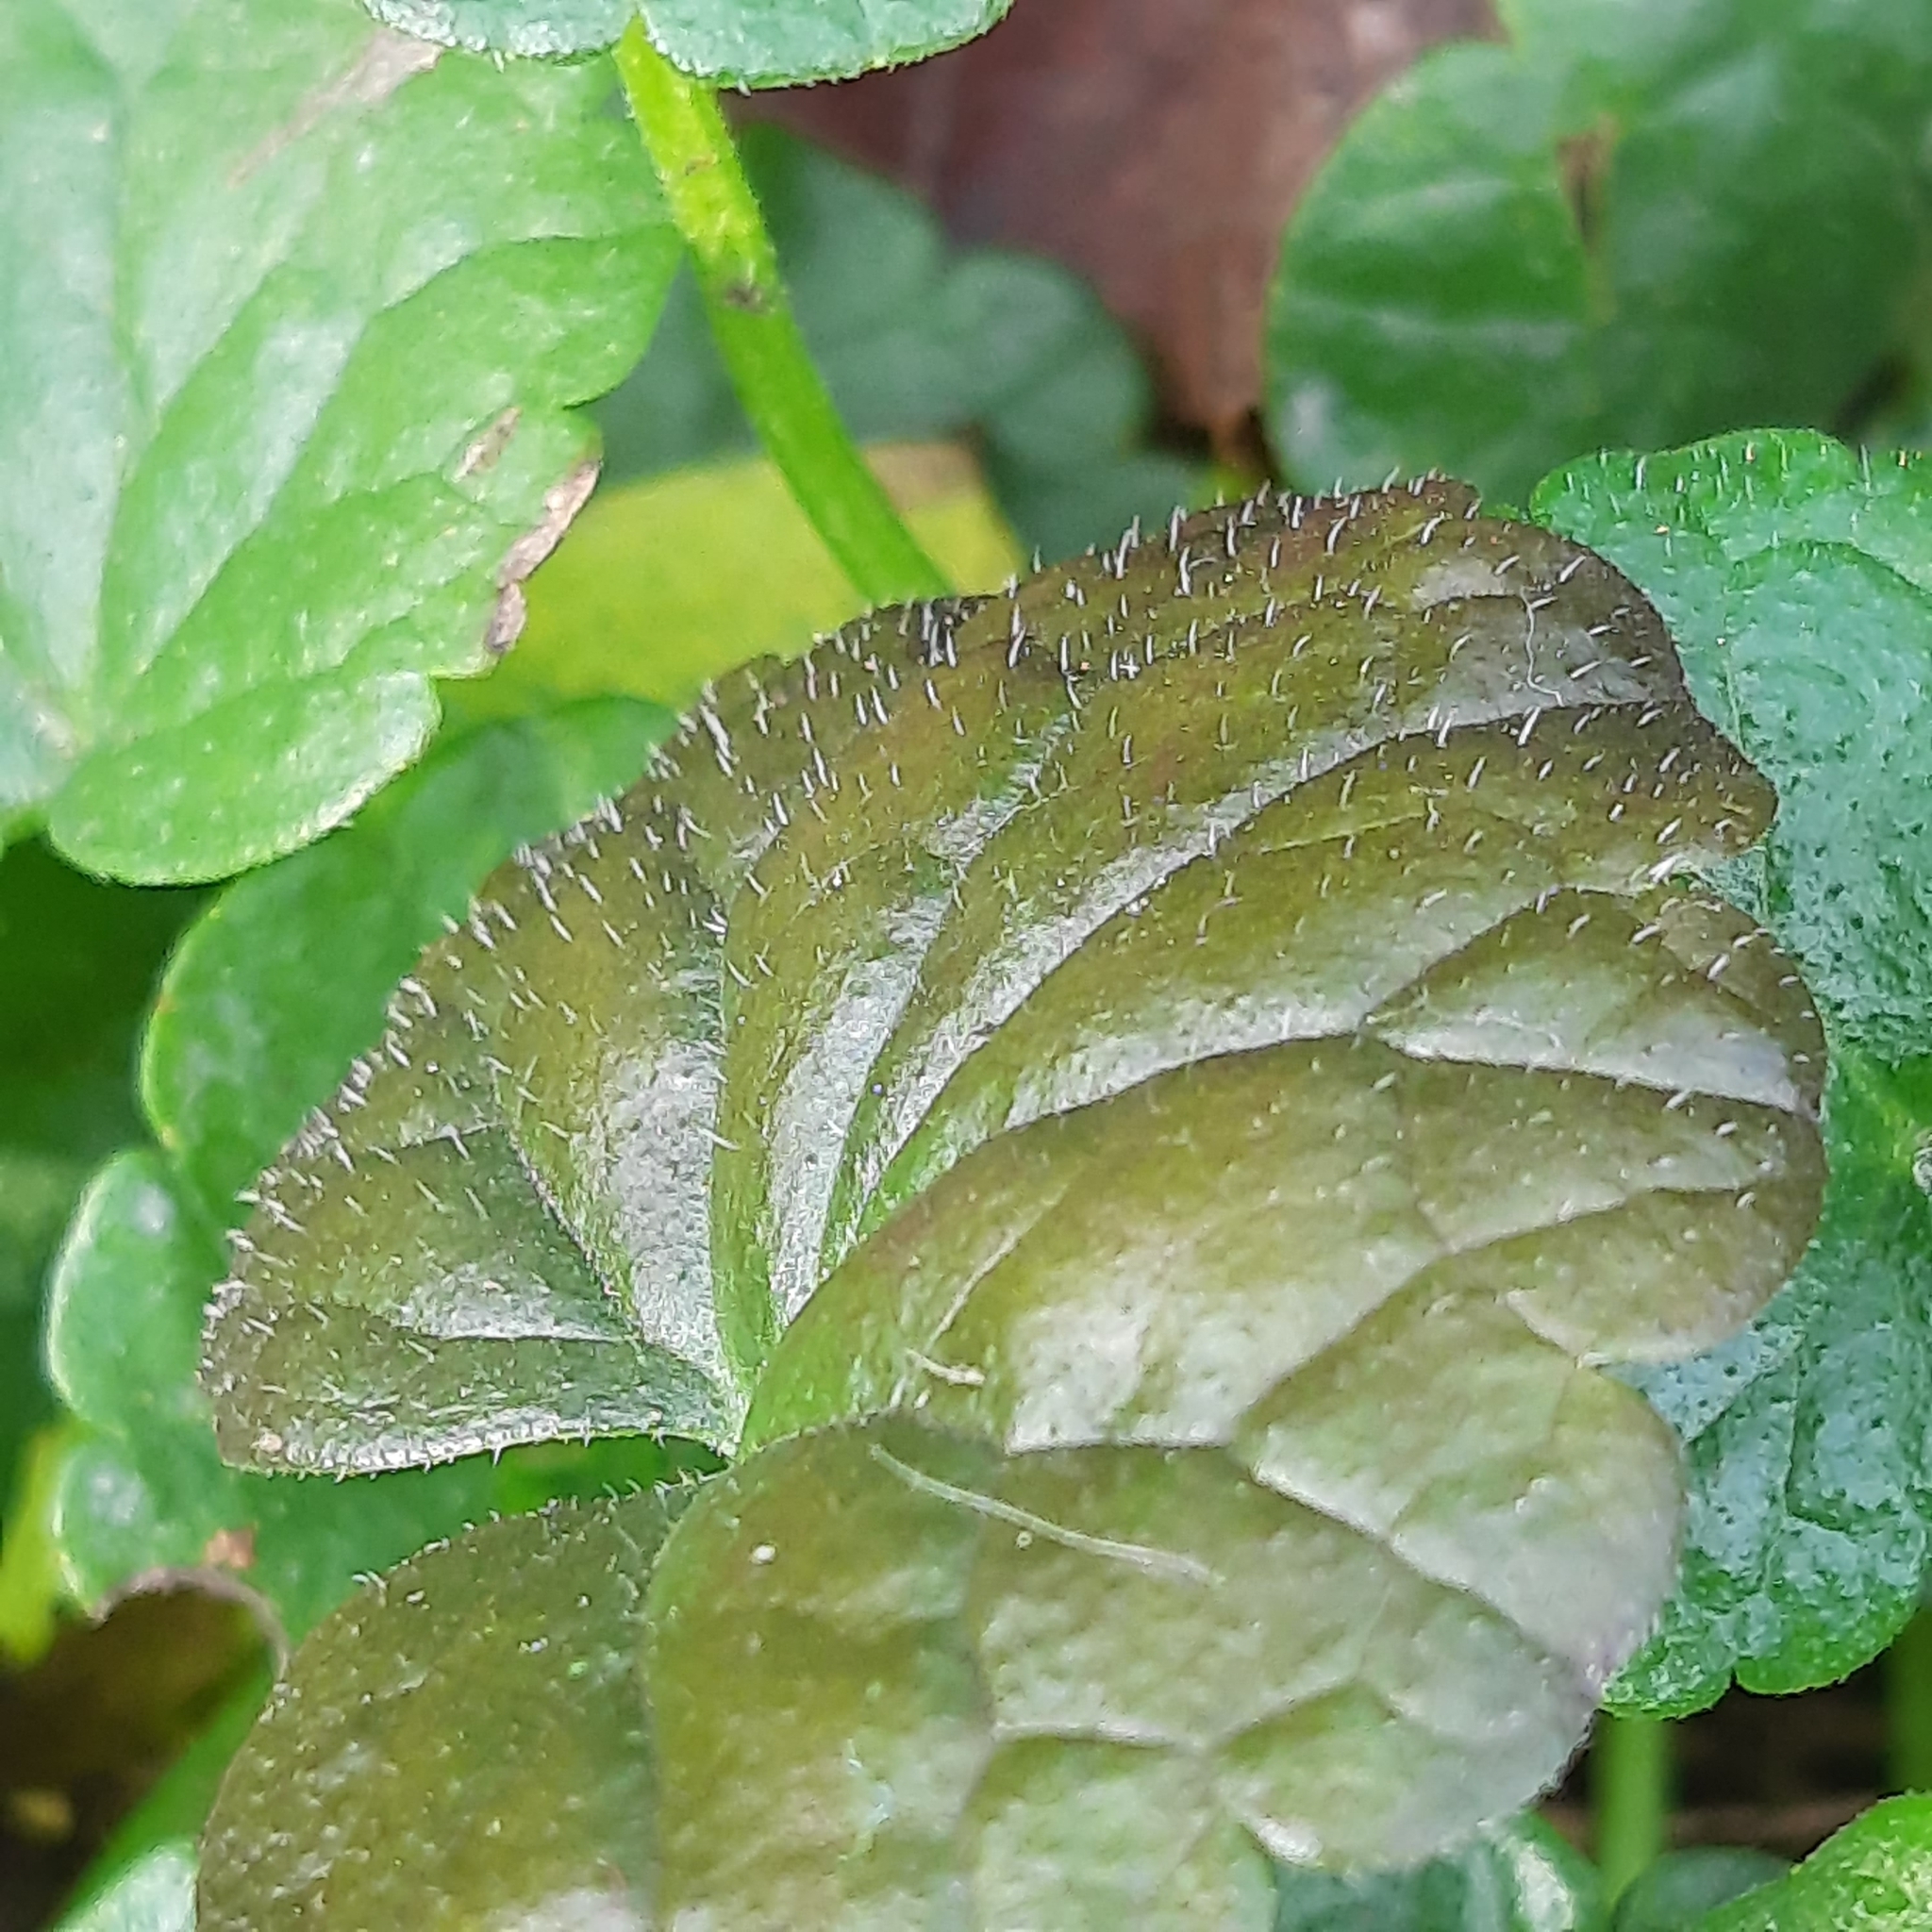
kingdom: Plantae
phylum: Tracheophyta
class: Magnoliopsida
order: Lamiales
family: Lamiaceae
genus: Glechoma
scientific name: Glechoma hederacea
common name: Ground ivy
